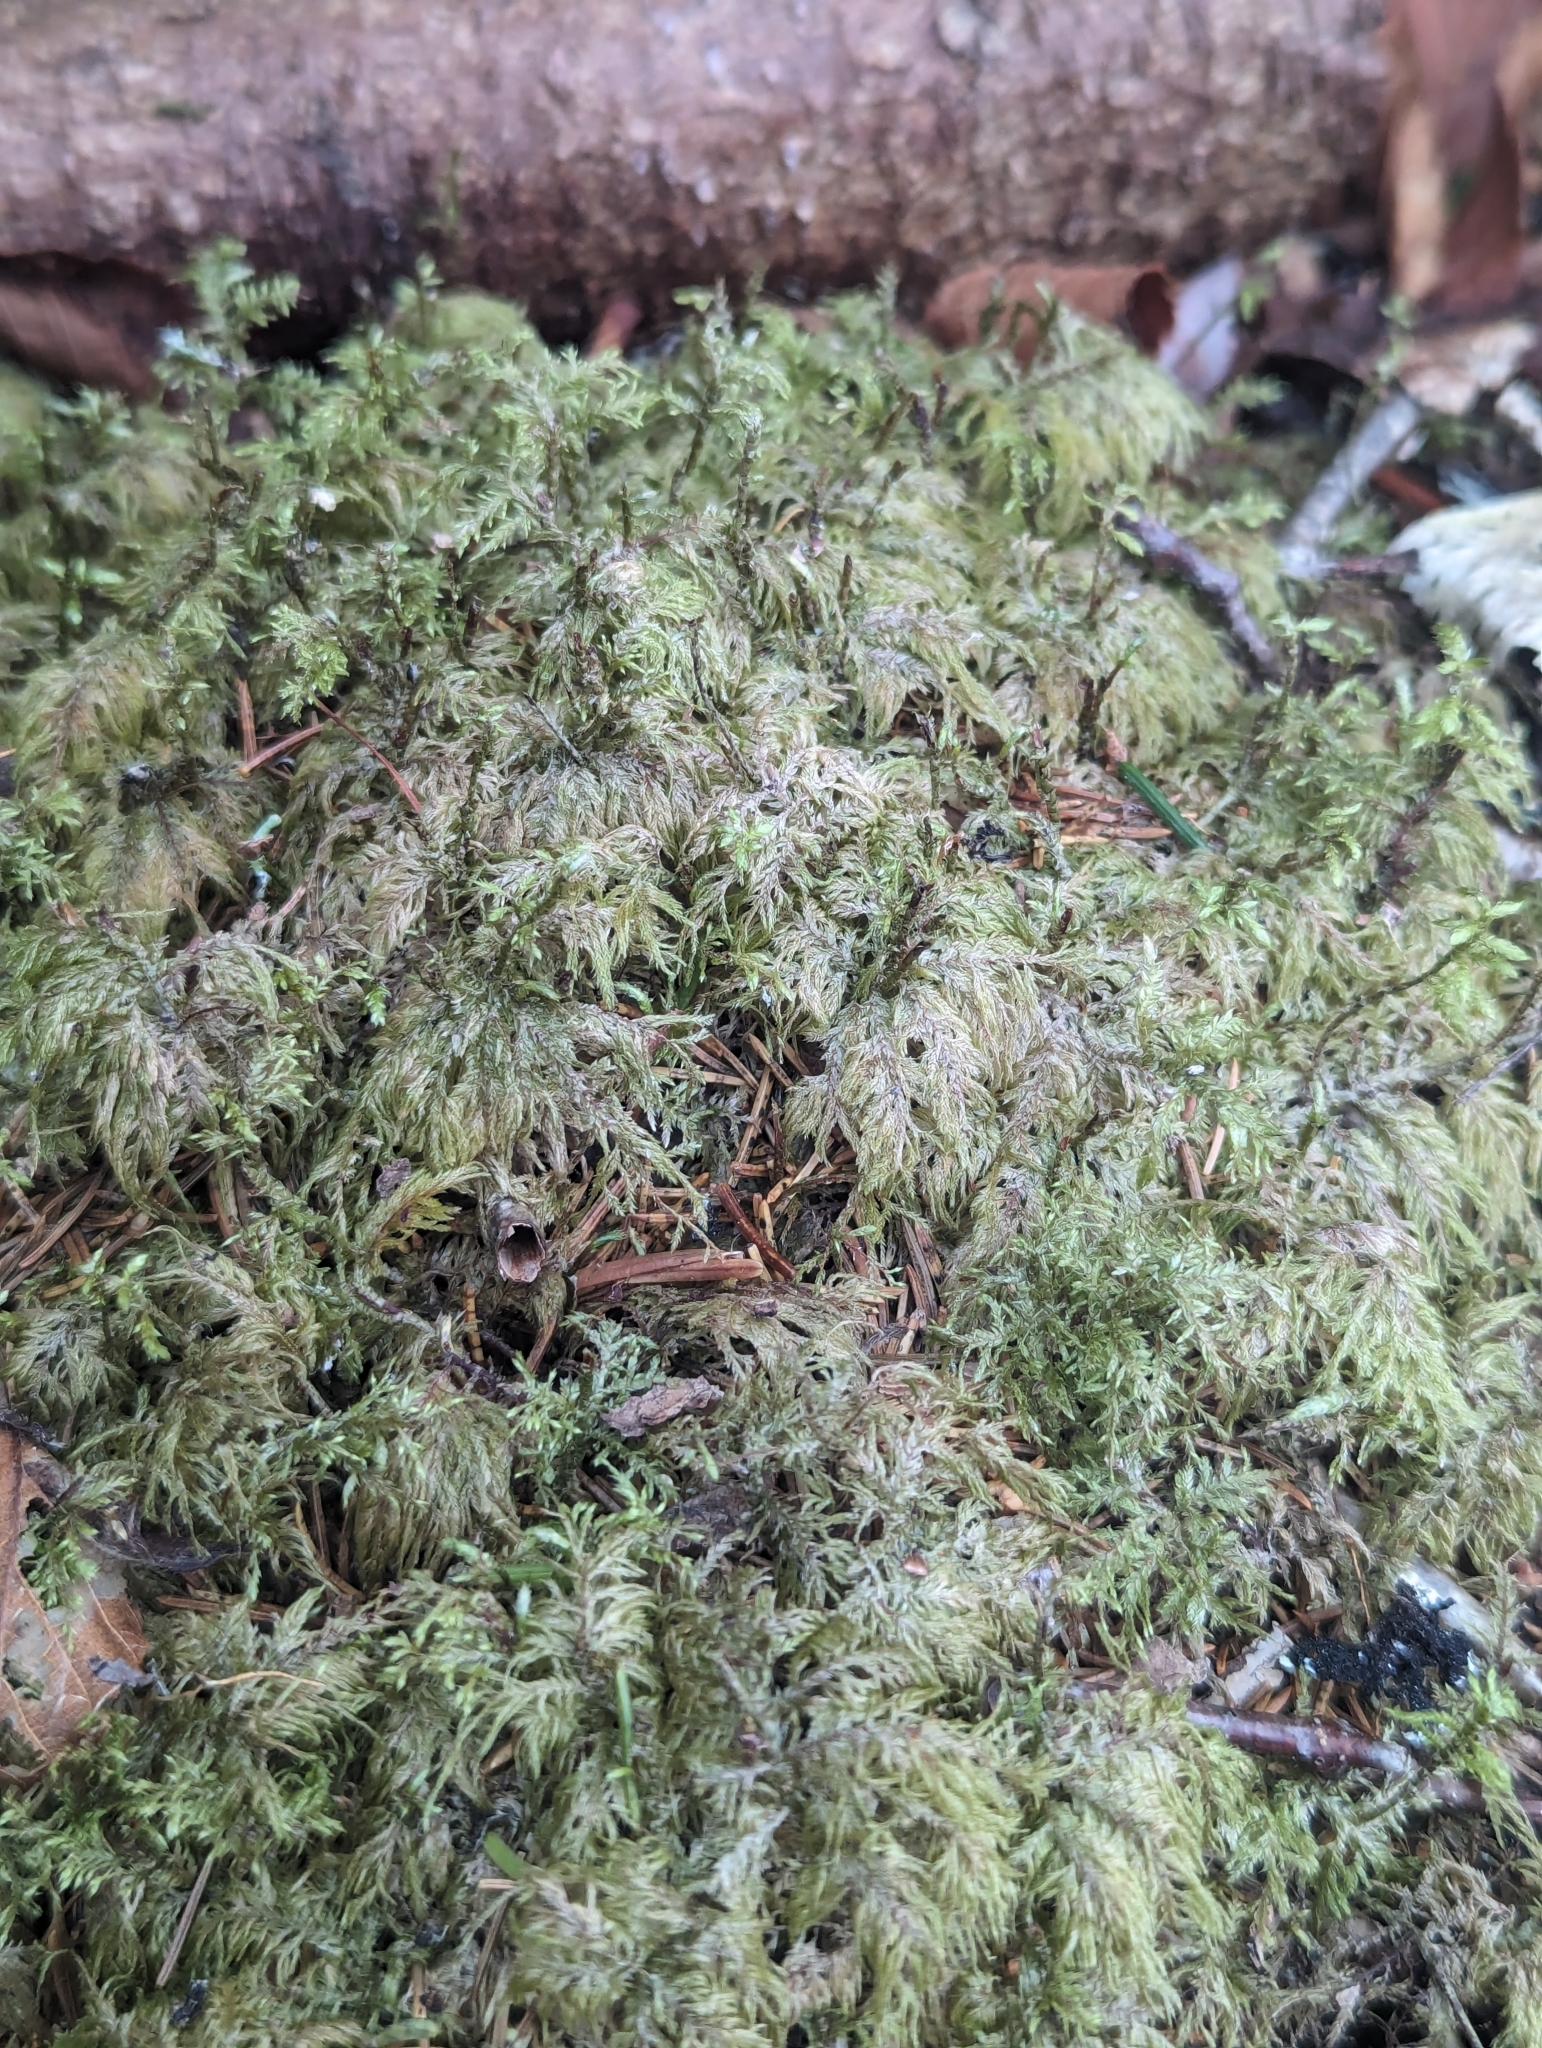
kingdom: Plantae
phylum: Bryophyta
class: Bryopsida
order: Hypnales
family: Hylocomiaceae
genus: Hylocomium
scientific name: Hylocomium splendens
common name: Stairstep moss
